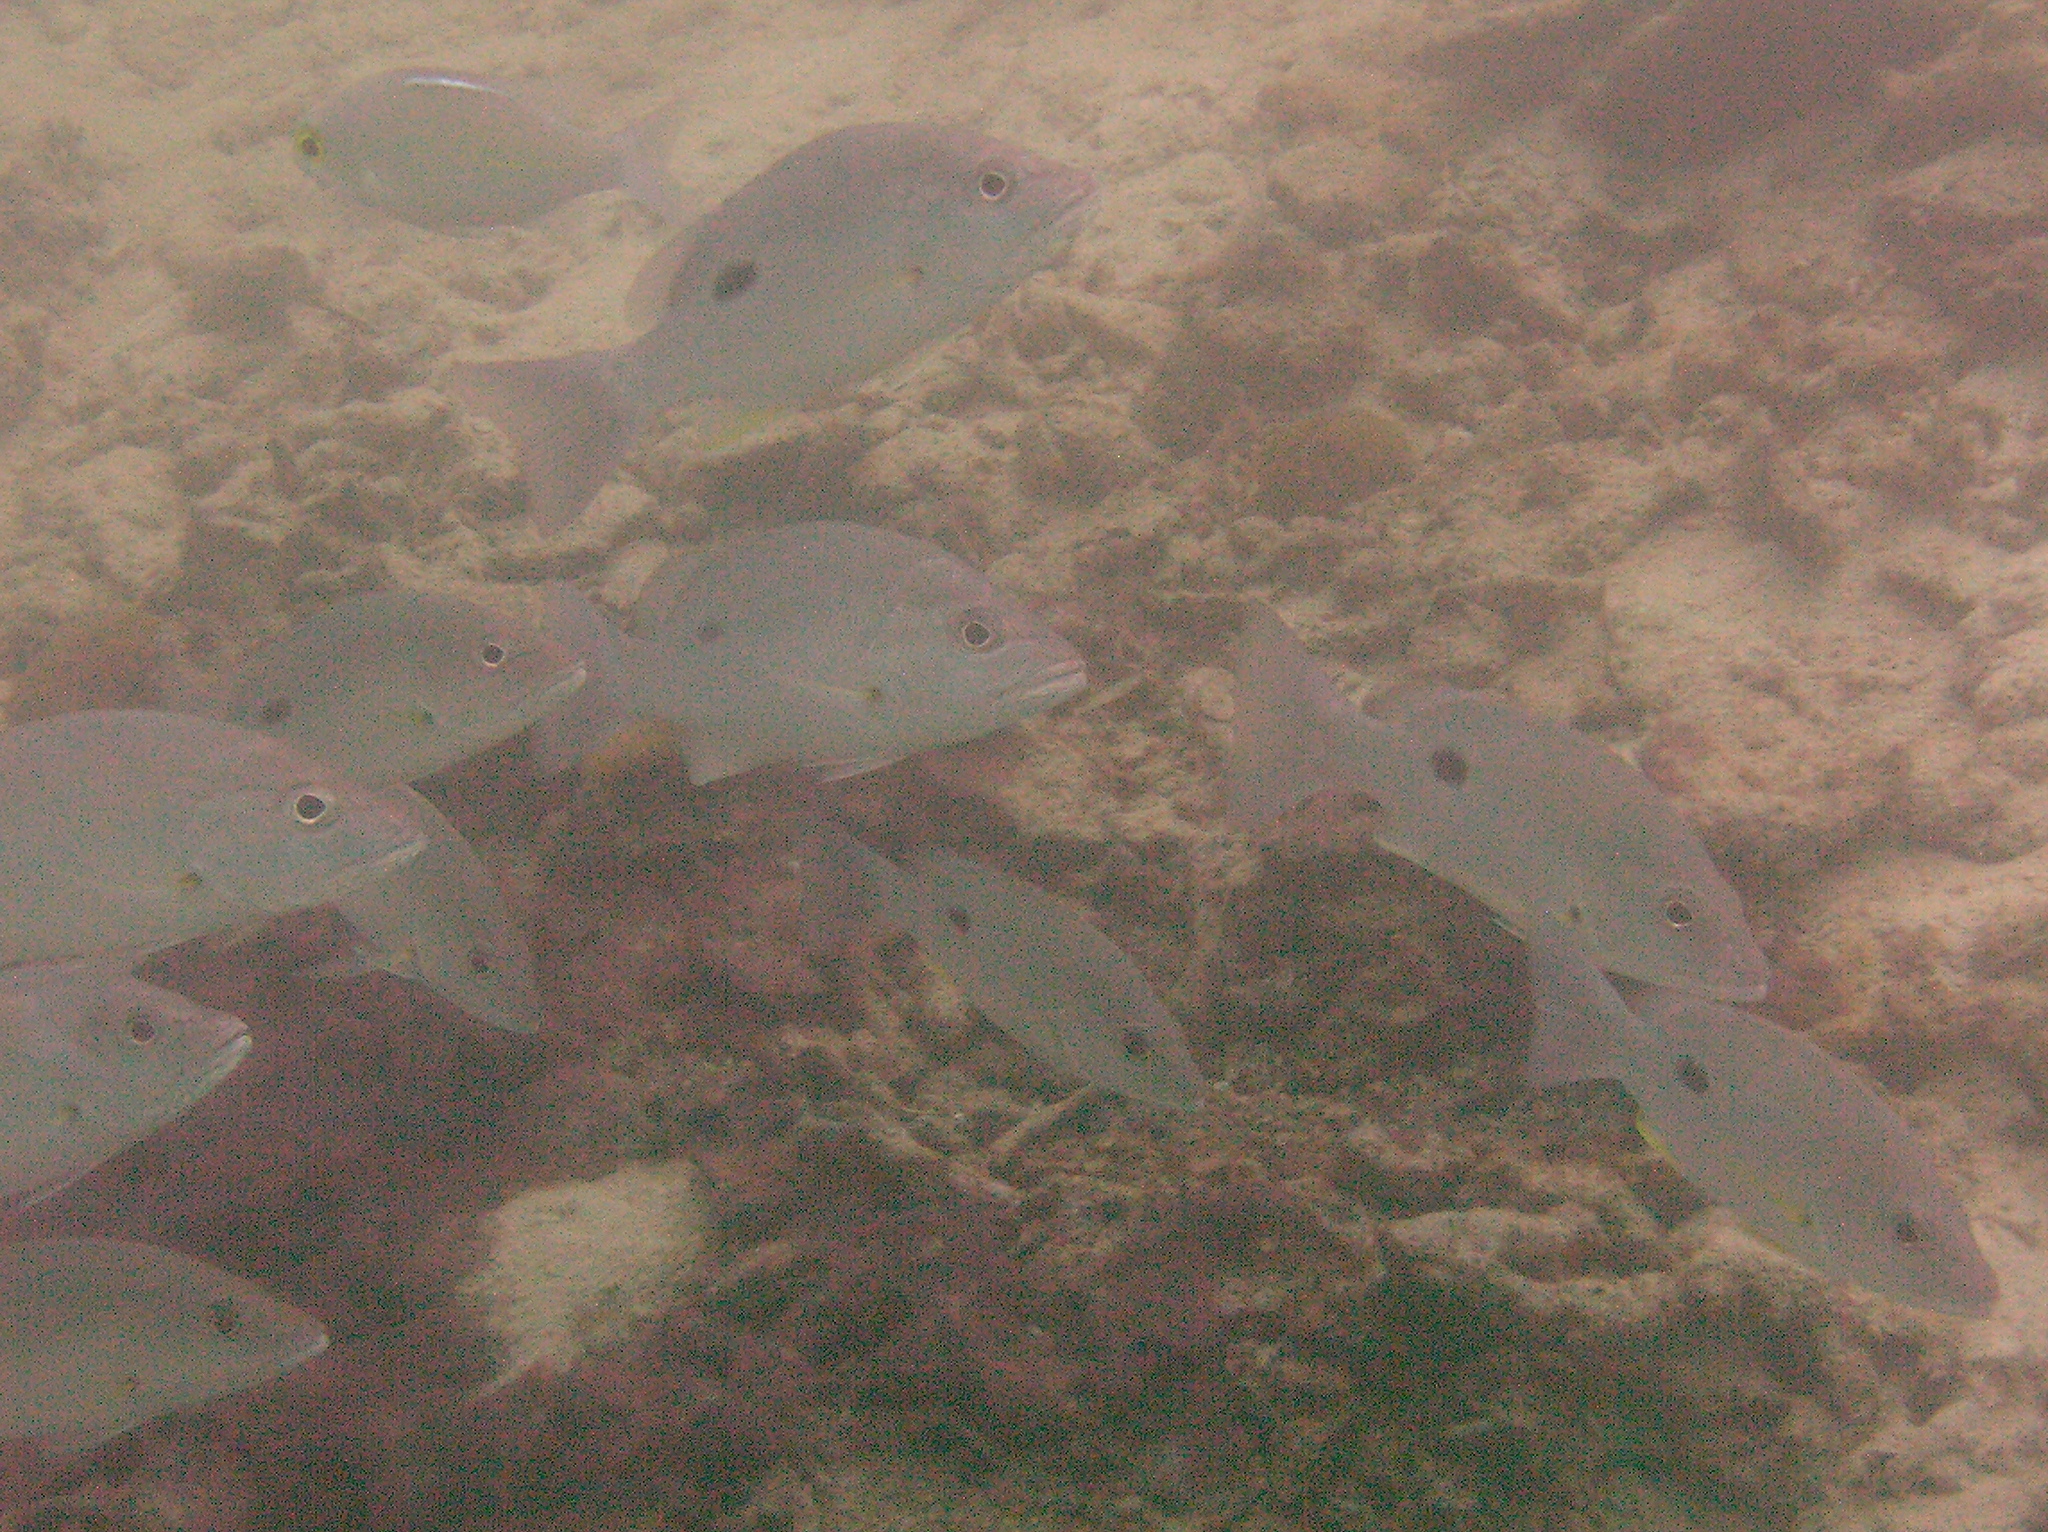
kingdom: Animalia
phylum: Chordata
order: Perciformes
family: Lutjanidae
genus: Lutjanus
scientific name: Lutjanus russellii
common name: Russell's snapper
